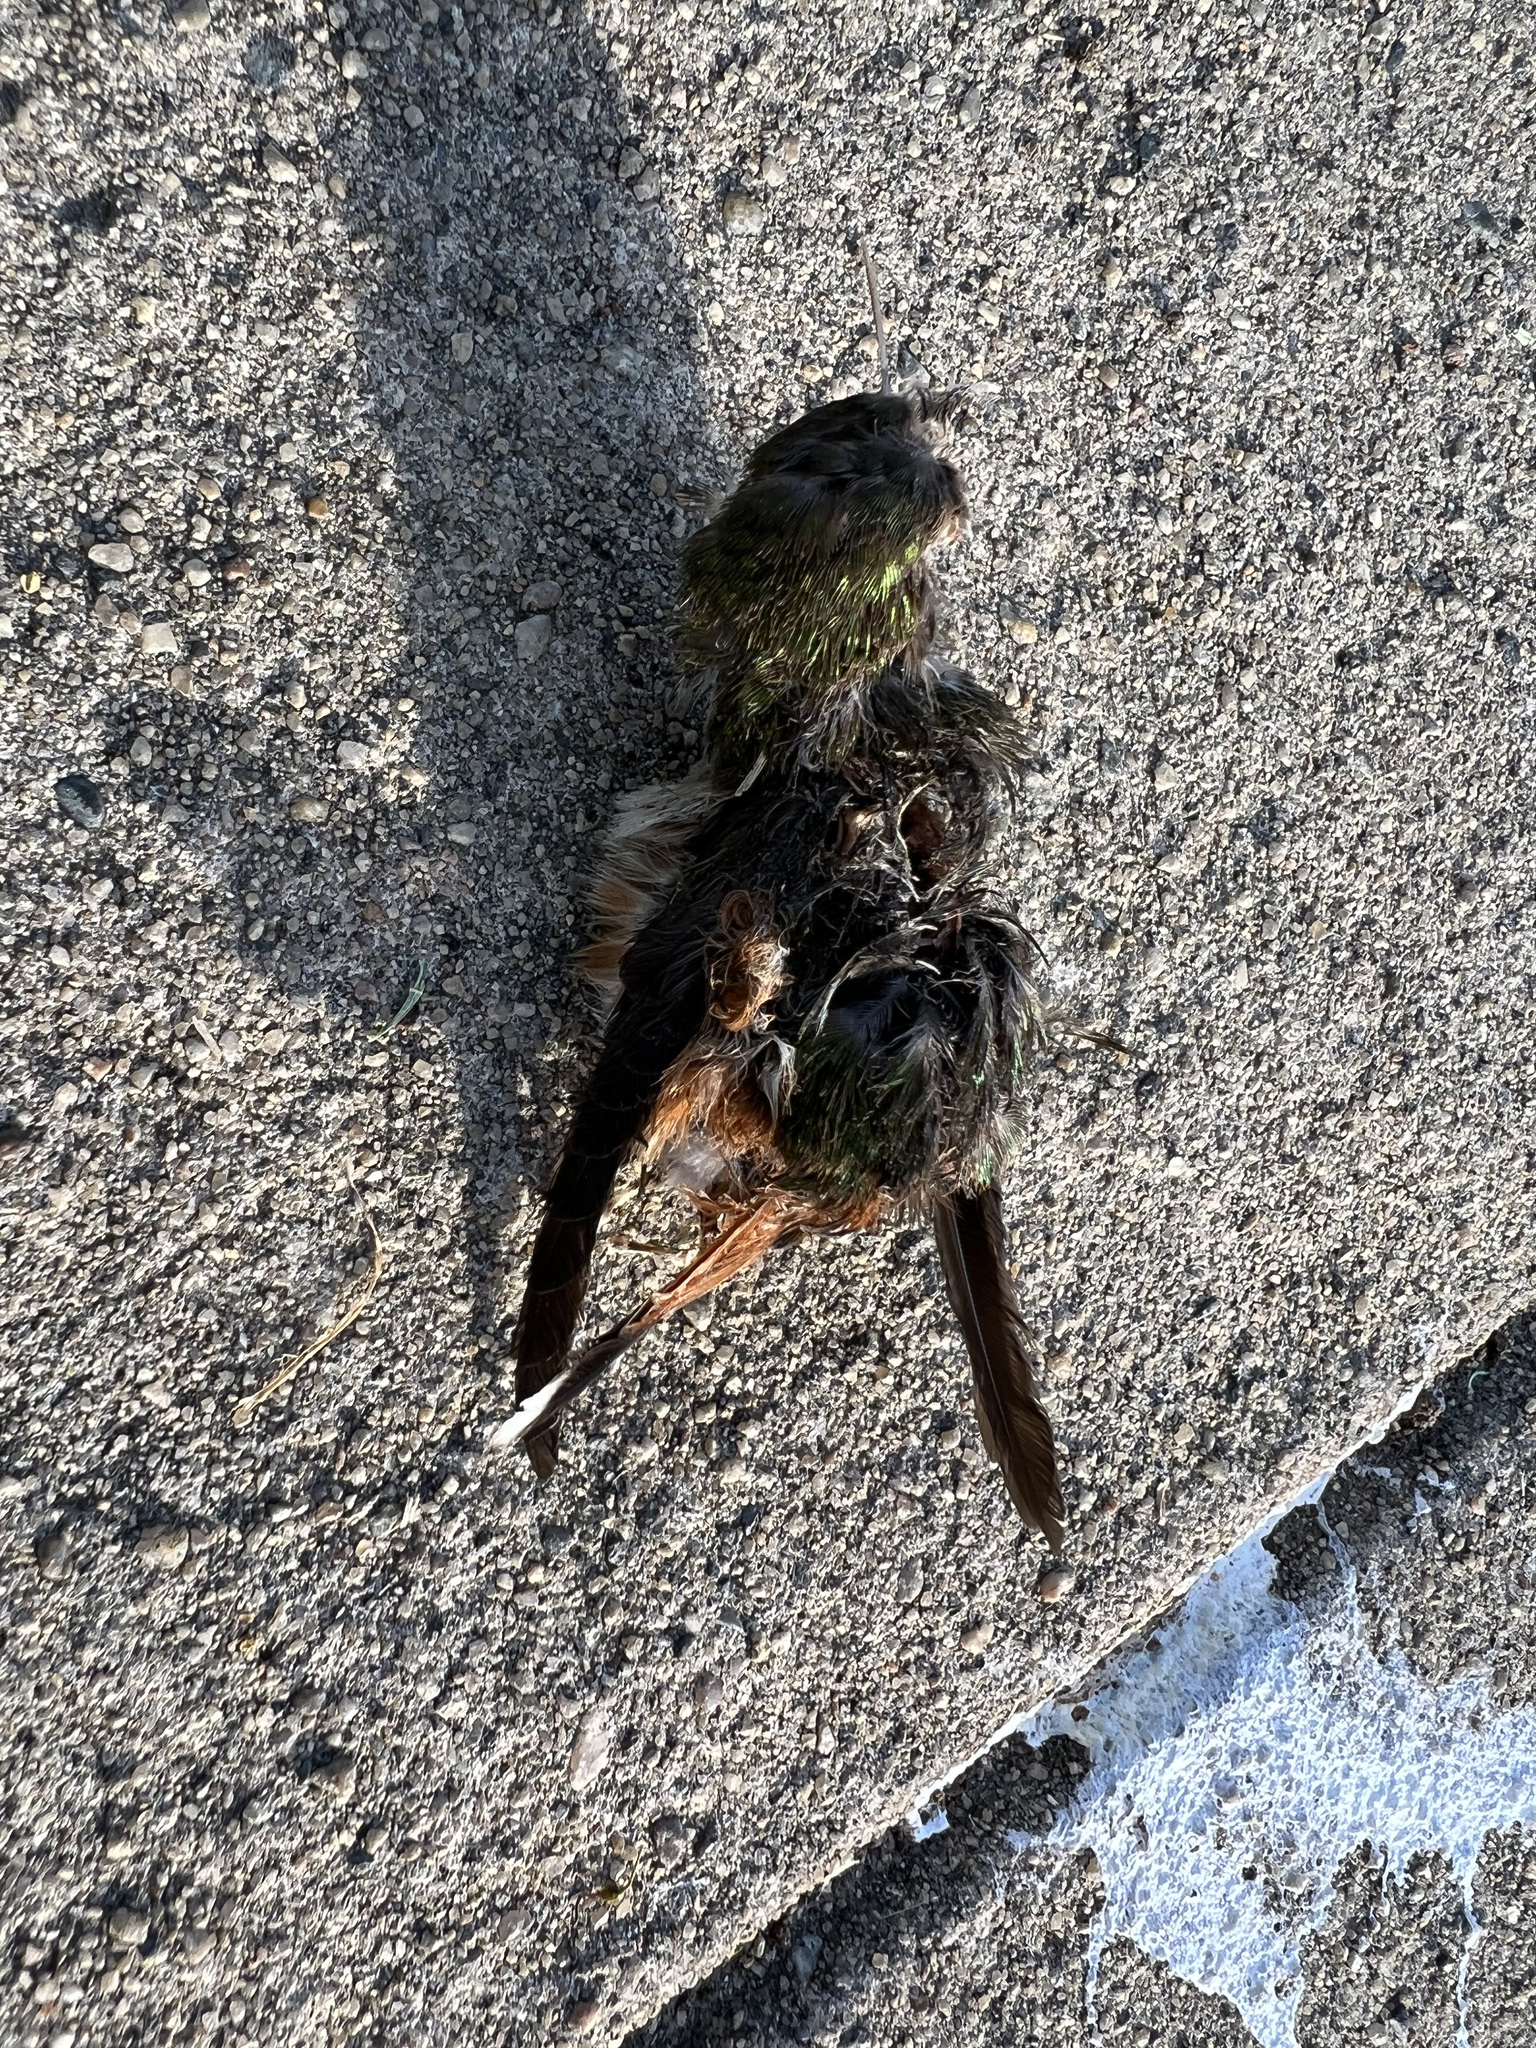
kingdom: Animalia
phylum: Chordata
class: Aves
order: Apodiformes
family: Trochilidae
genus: Selasphorus
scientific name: Selasphorus
